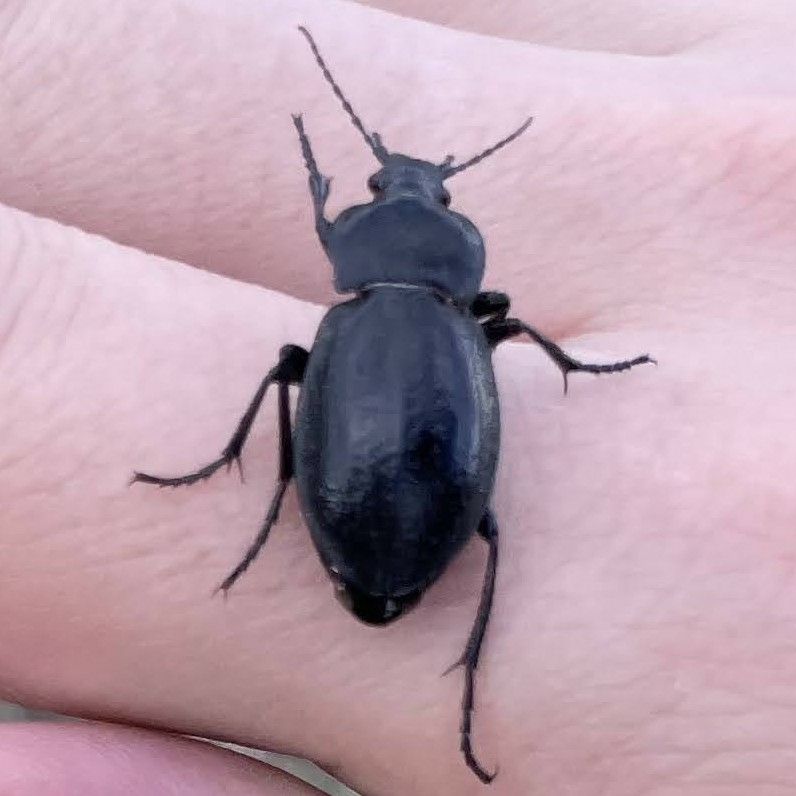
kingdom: Animalia
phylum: Arthropoda
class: Insecta
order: Coleoptera
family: Carabidae
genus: Carabus
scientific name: Carabus erosus
